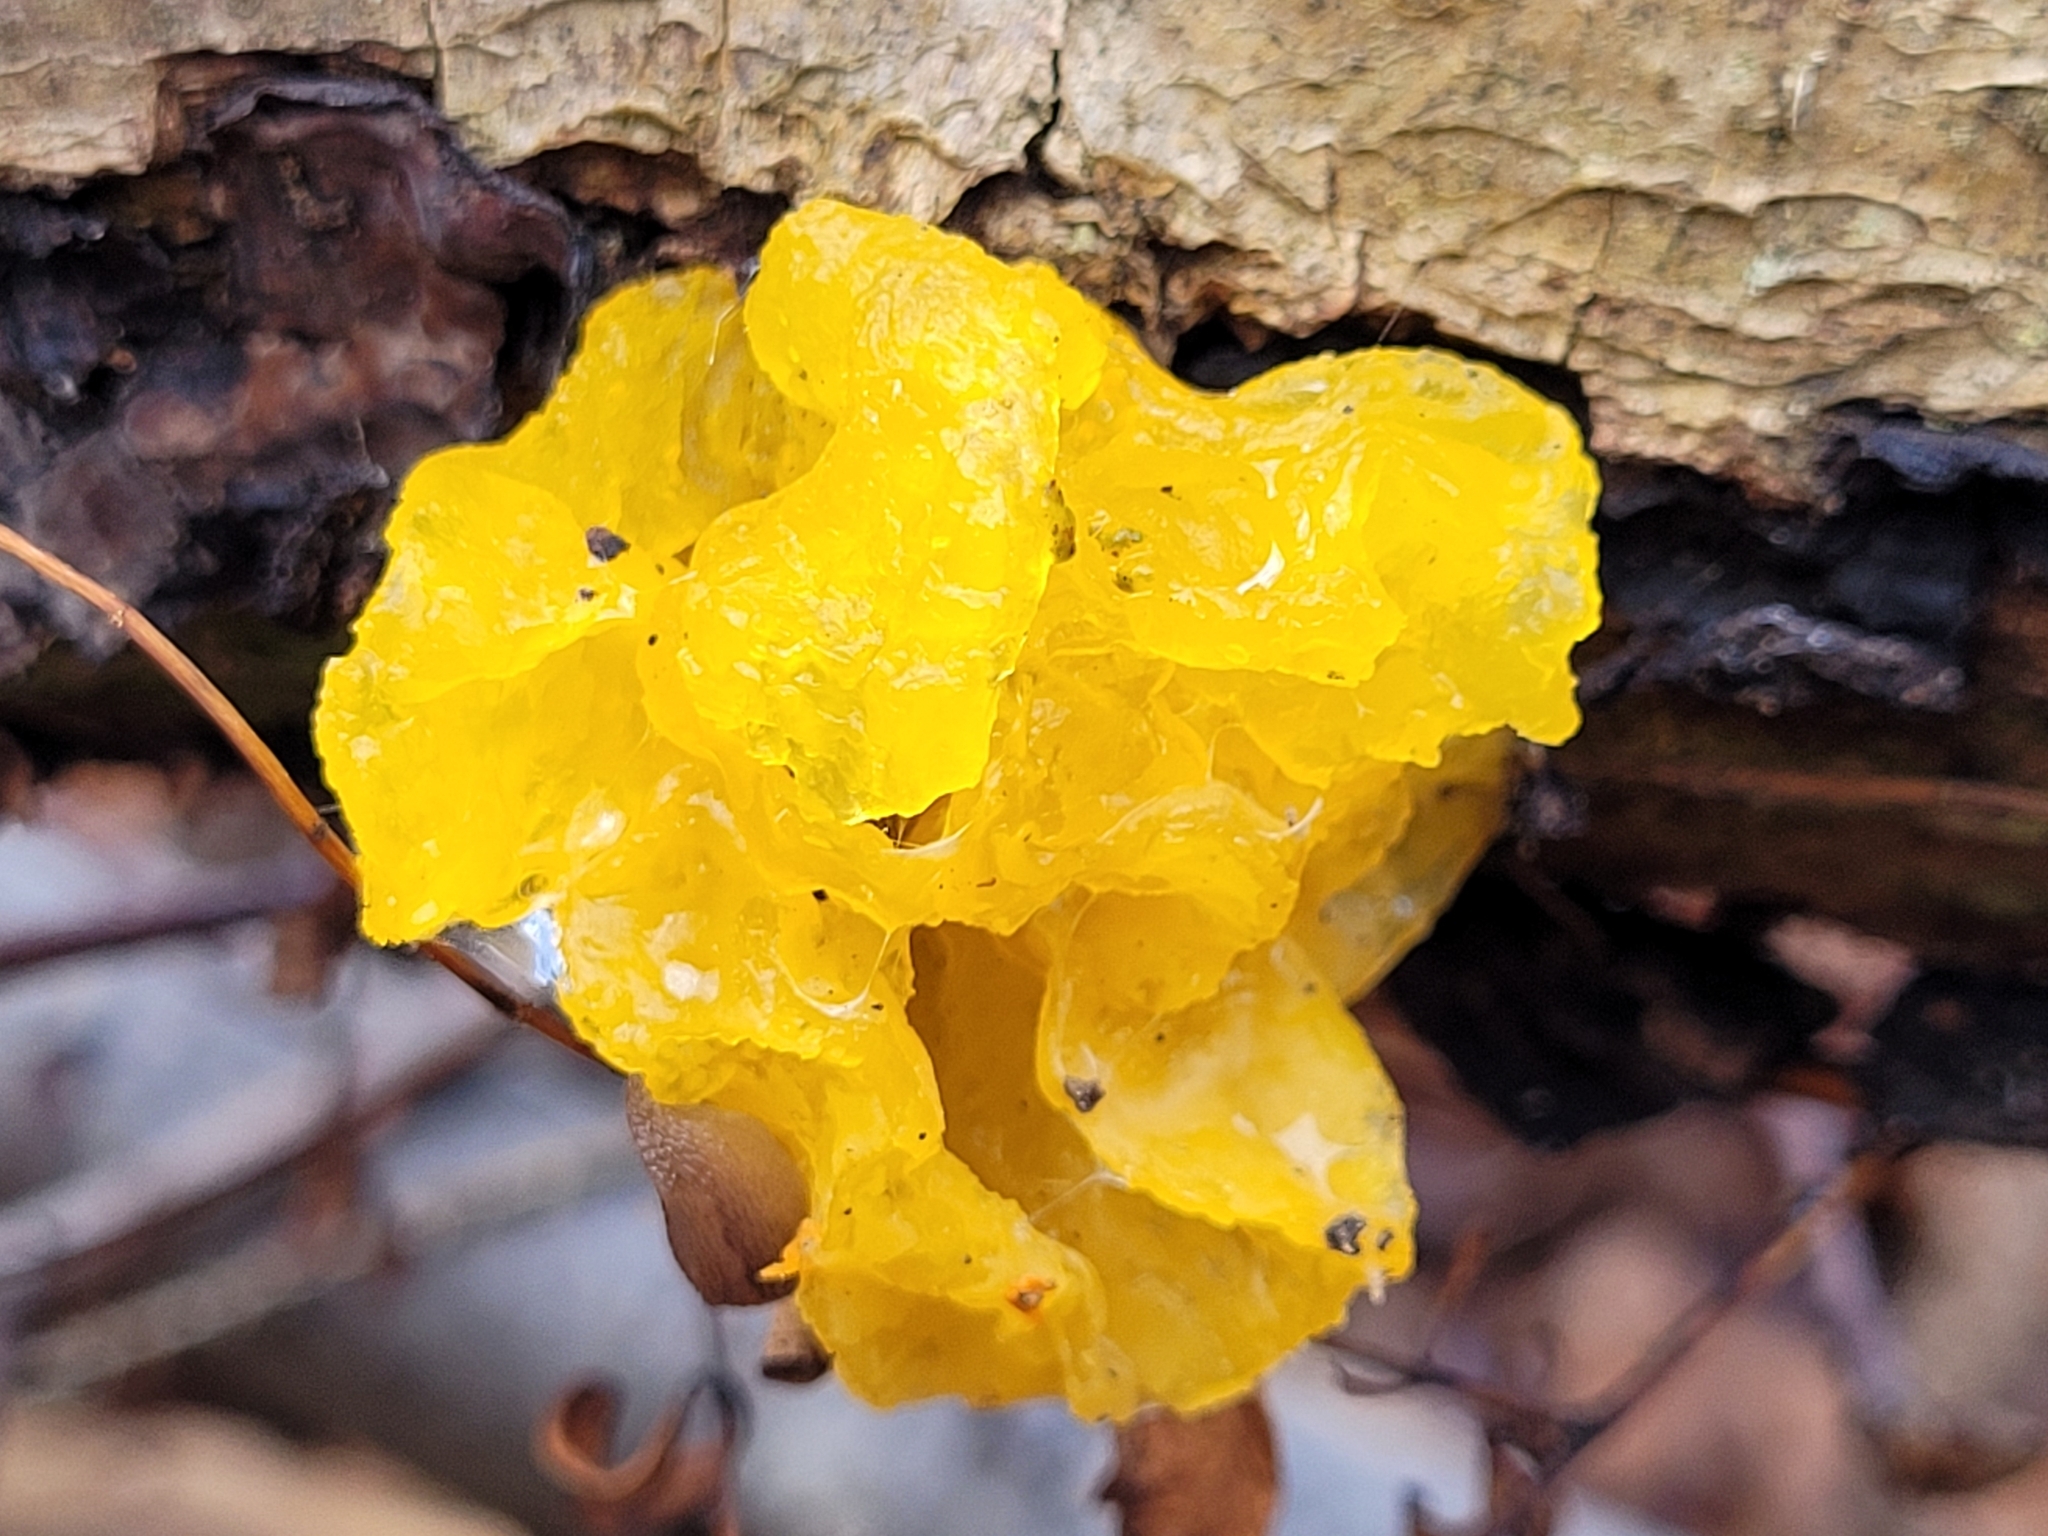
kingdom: Fungi
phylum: Basidiomycota
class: Tremellomycetes
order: Tremellales
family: Tremellaceae
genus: Tremella
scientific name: Tremella mesenterica
